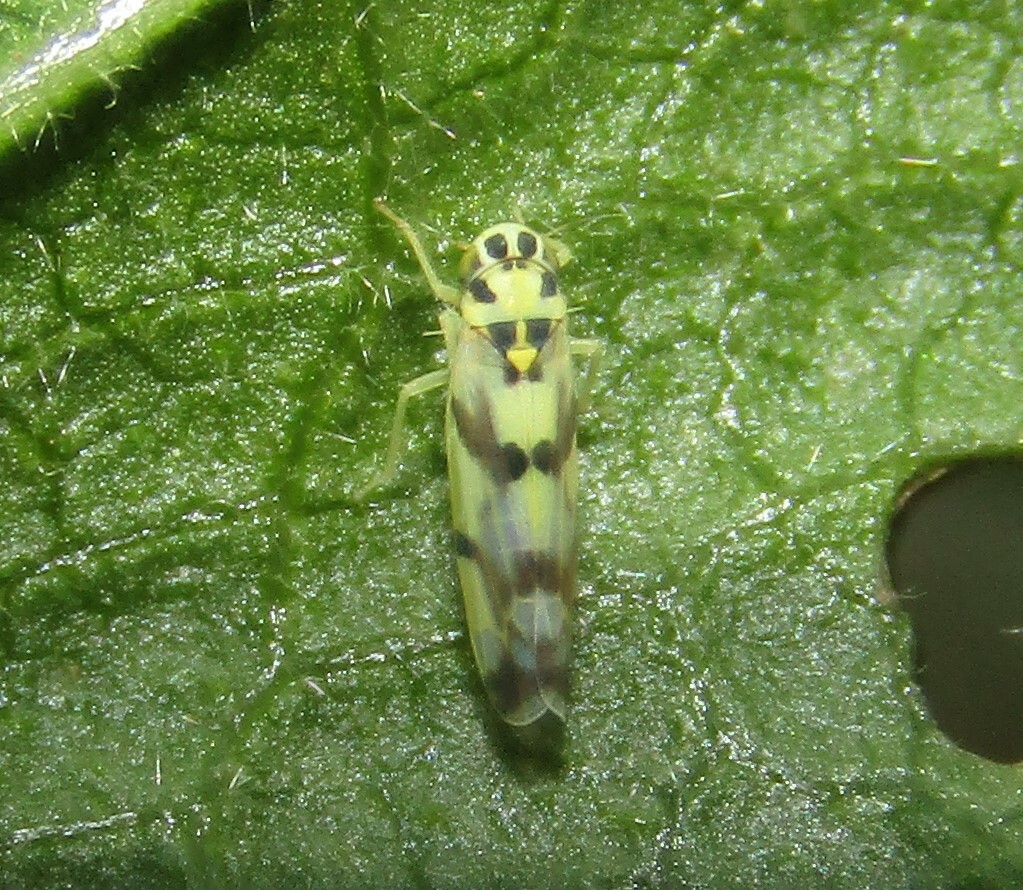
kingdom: Animalia
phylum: Arthropoda
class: Insecta
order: Hemiptera
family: Cicadellidae
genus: Eupteryx
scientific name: Eupteryx atropunctata
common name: Leafhopper
